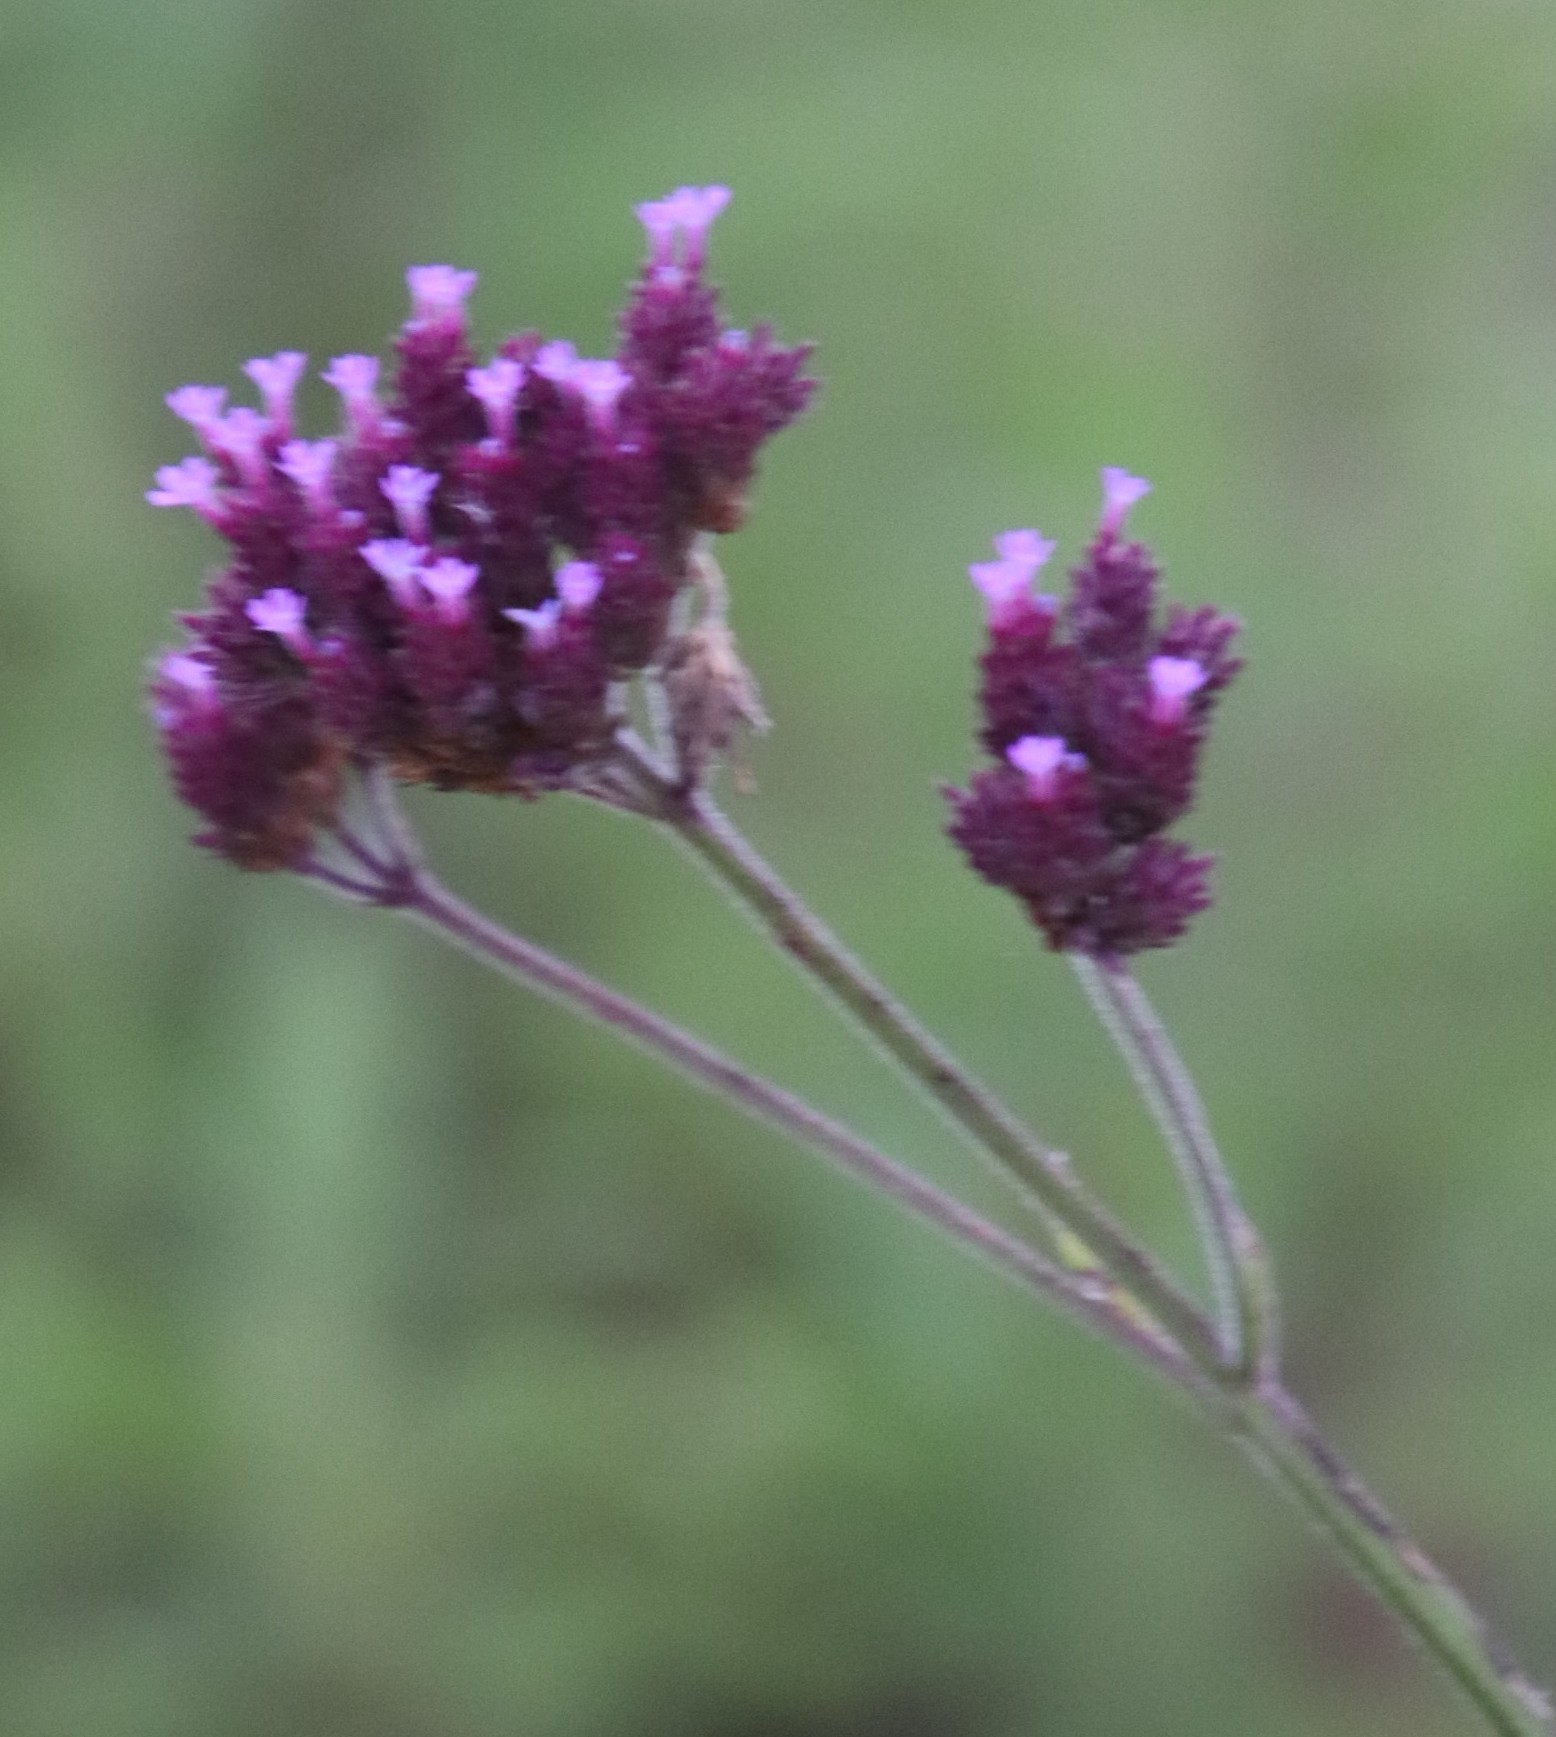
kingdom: Plantae
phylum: Tracheophyta
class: Magnoliopsida
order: Lamiales
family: Verbenaceae
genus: Verbena
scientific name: Verbena bonariensis
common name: Purpletop vervain
